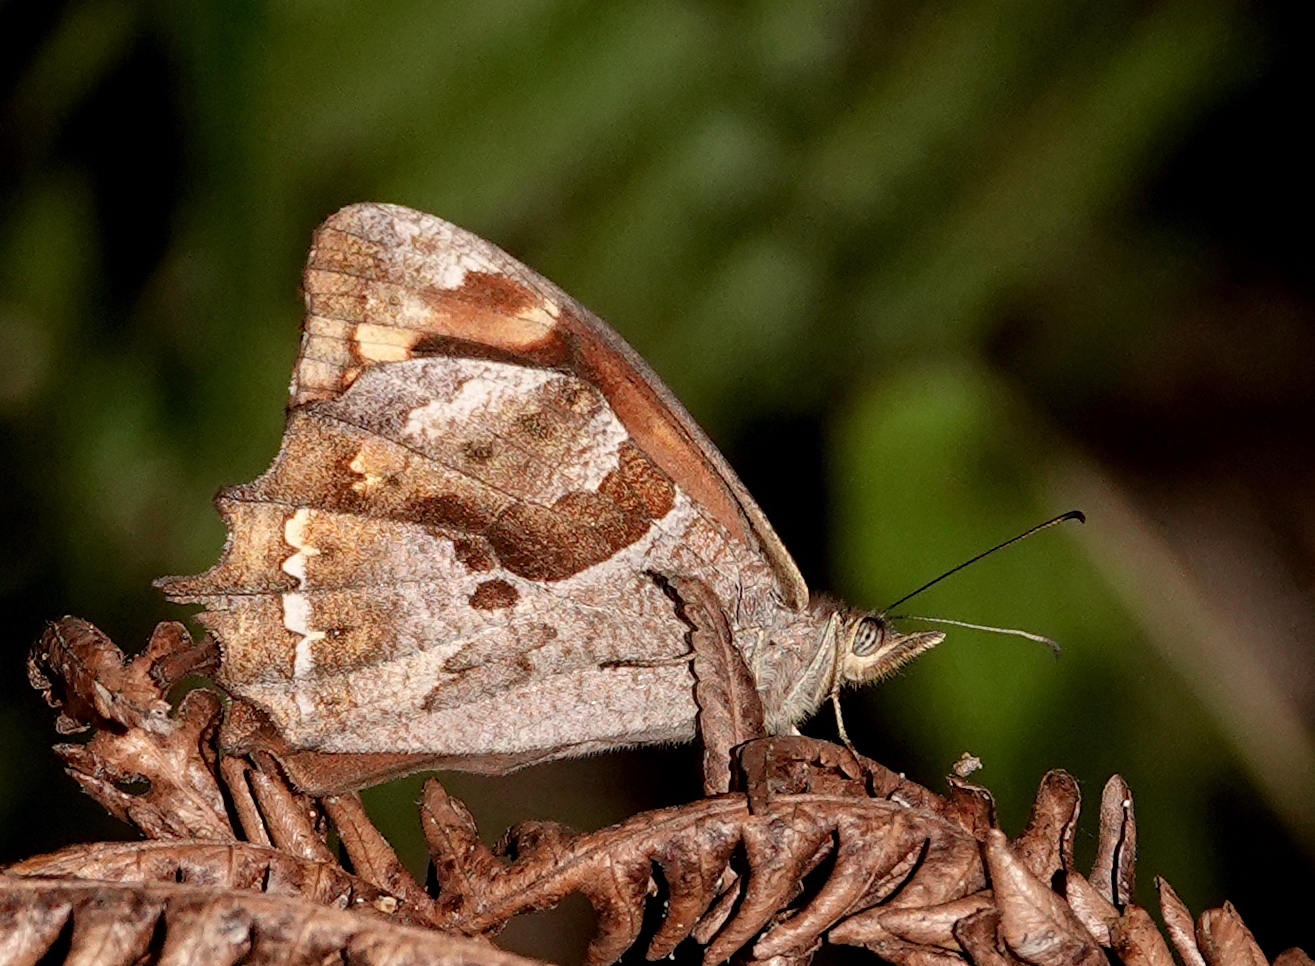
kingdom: Animalia
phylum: Arthropoda
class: Insecta
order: Lepidoptera
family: Nymphalidae
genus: Lasiophila
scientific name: Lasiophila zapatoza
